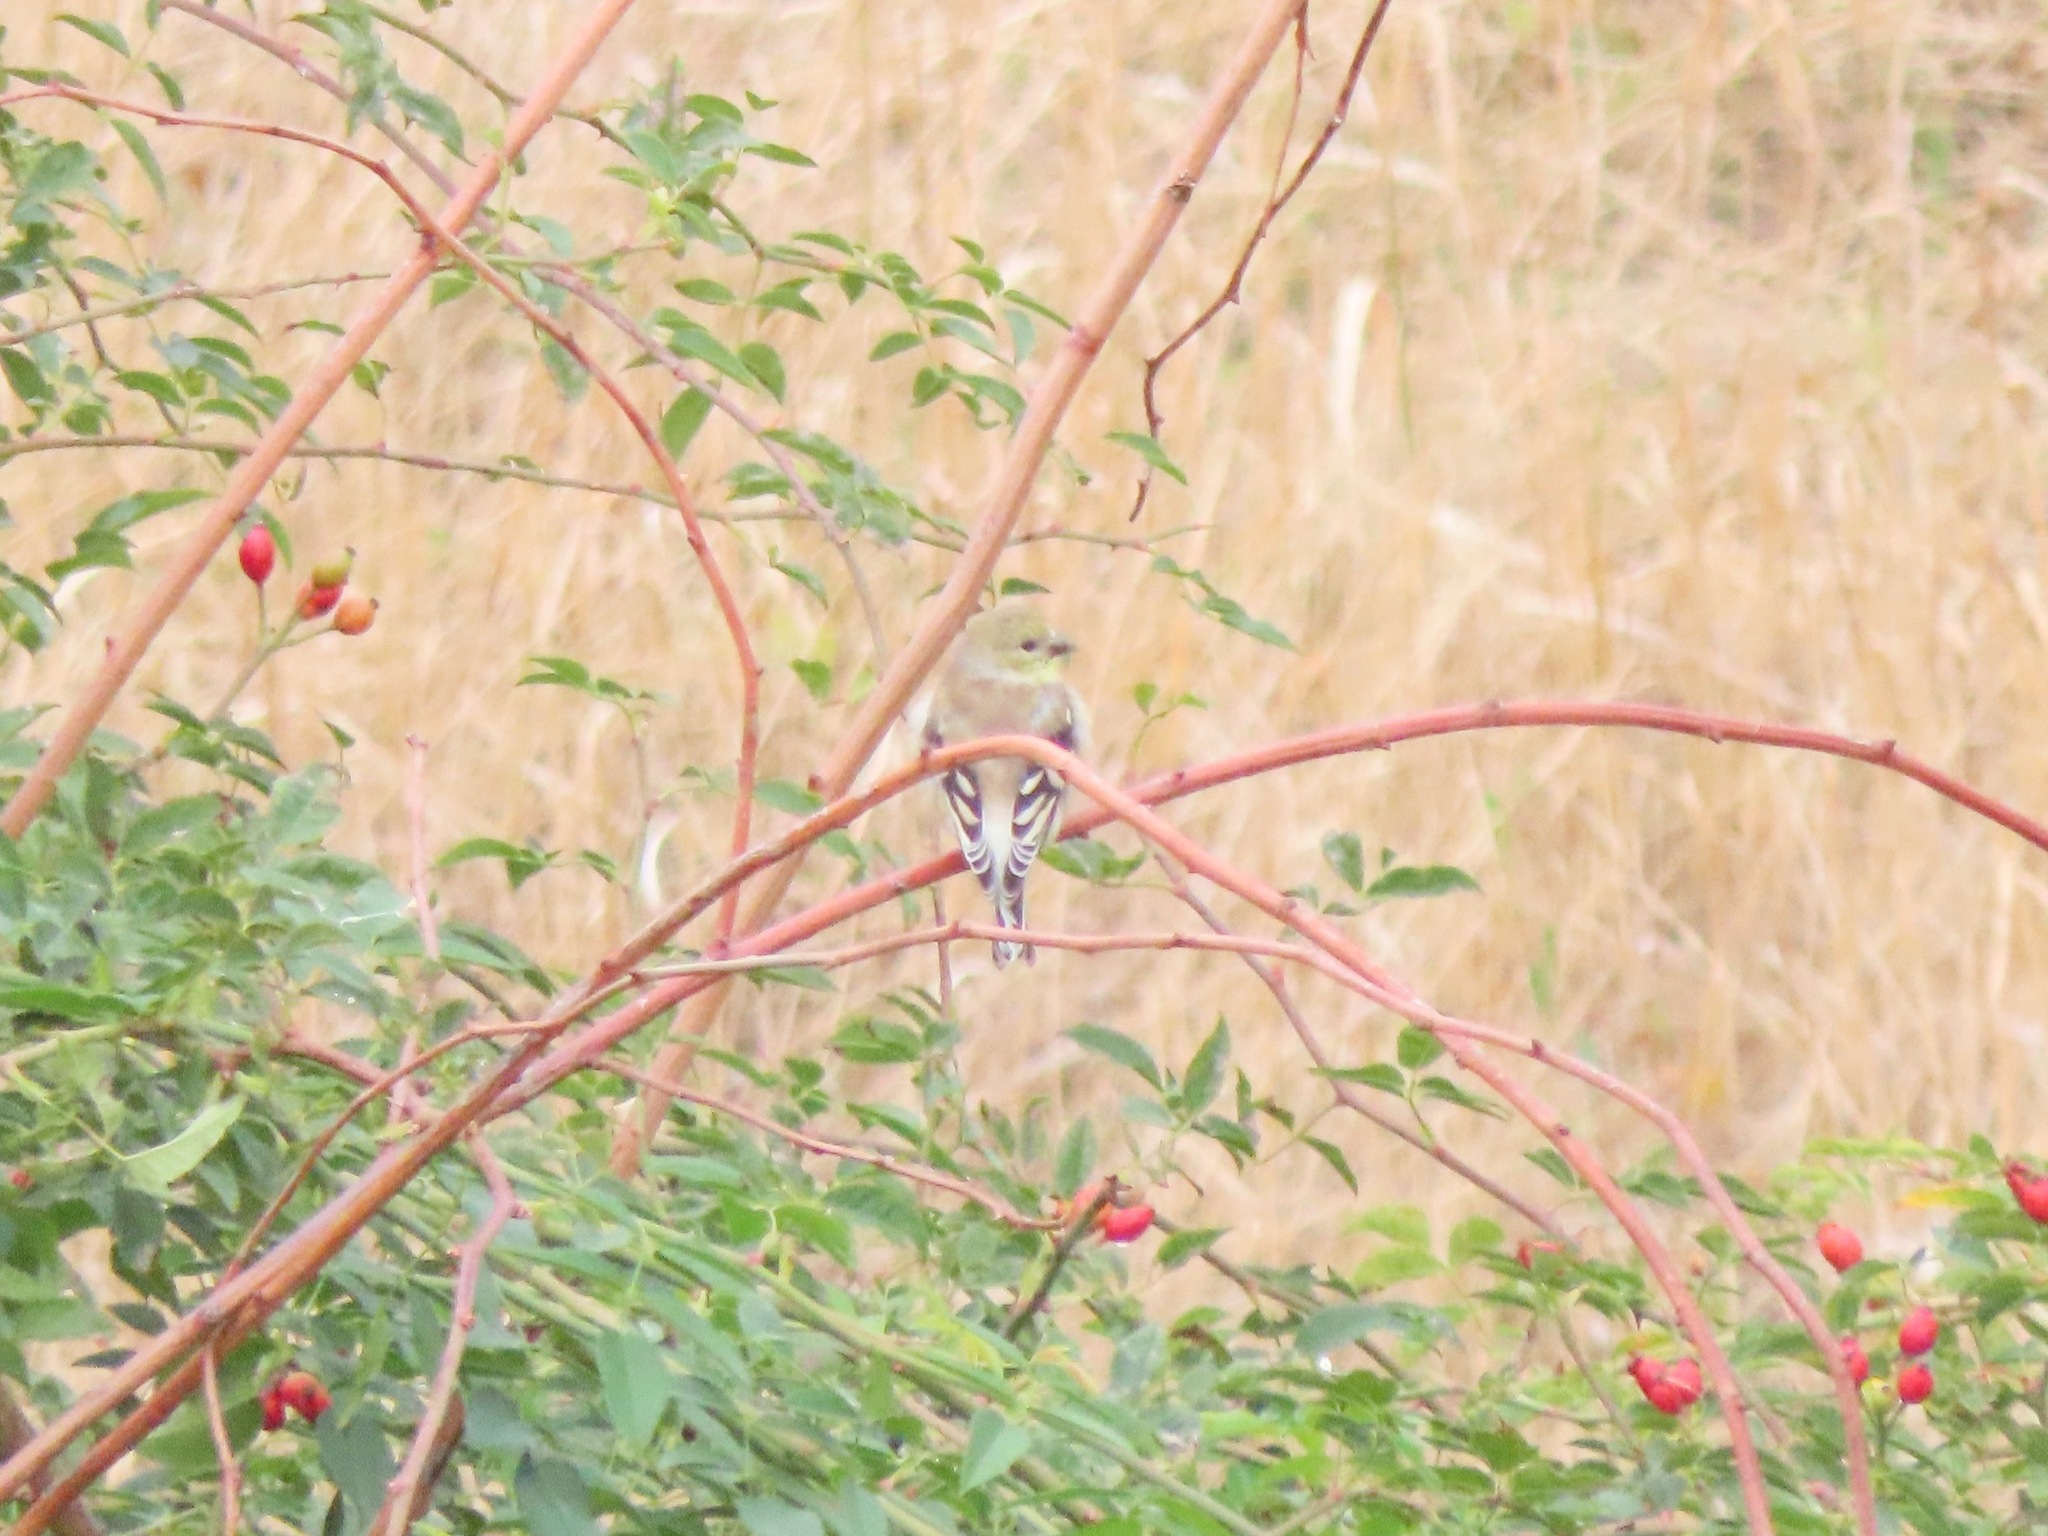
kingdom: Animalia
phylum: Chordata
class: Aves
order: Passeriformes
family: Fringillidae
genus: Spinus
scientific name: Spinus tristis
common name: American goldfinch
